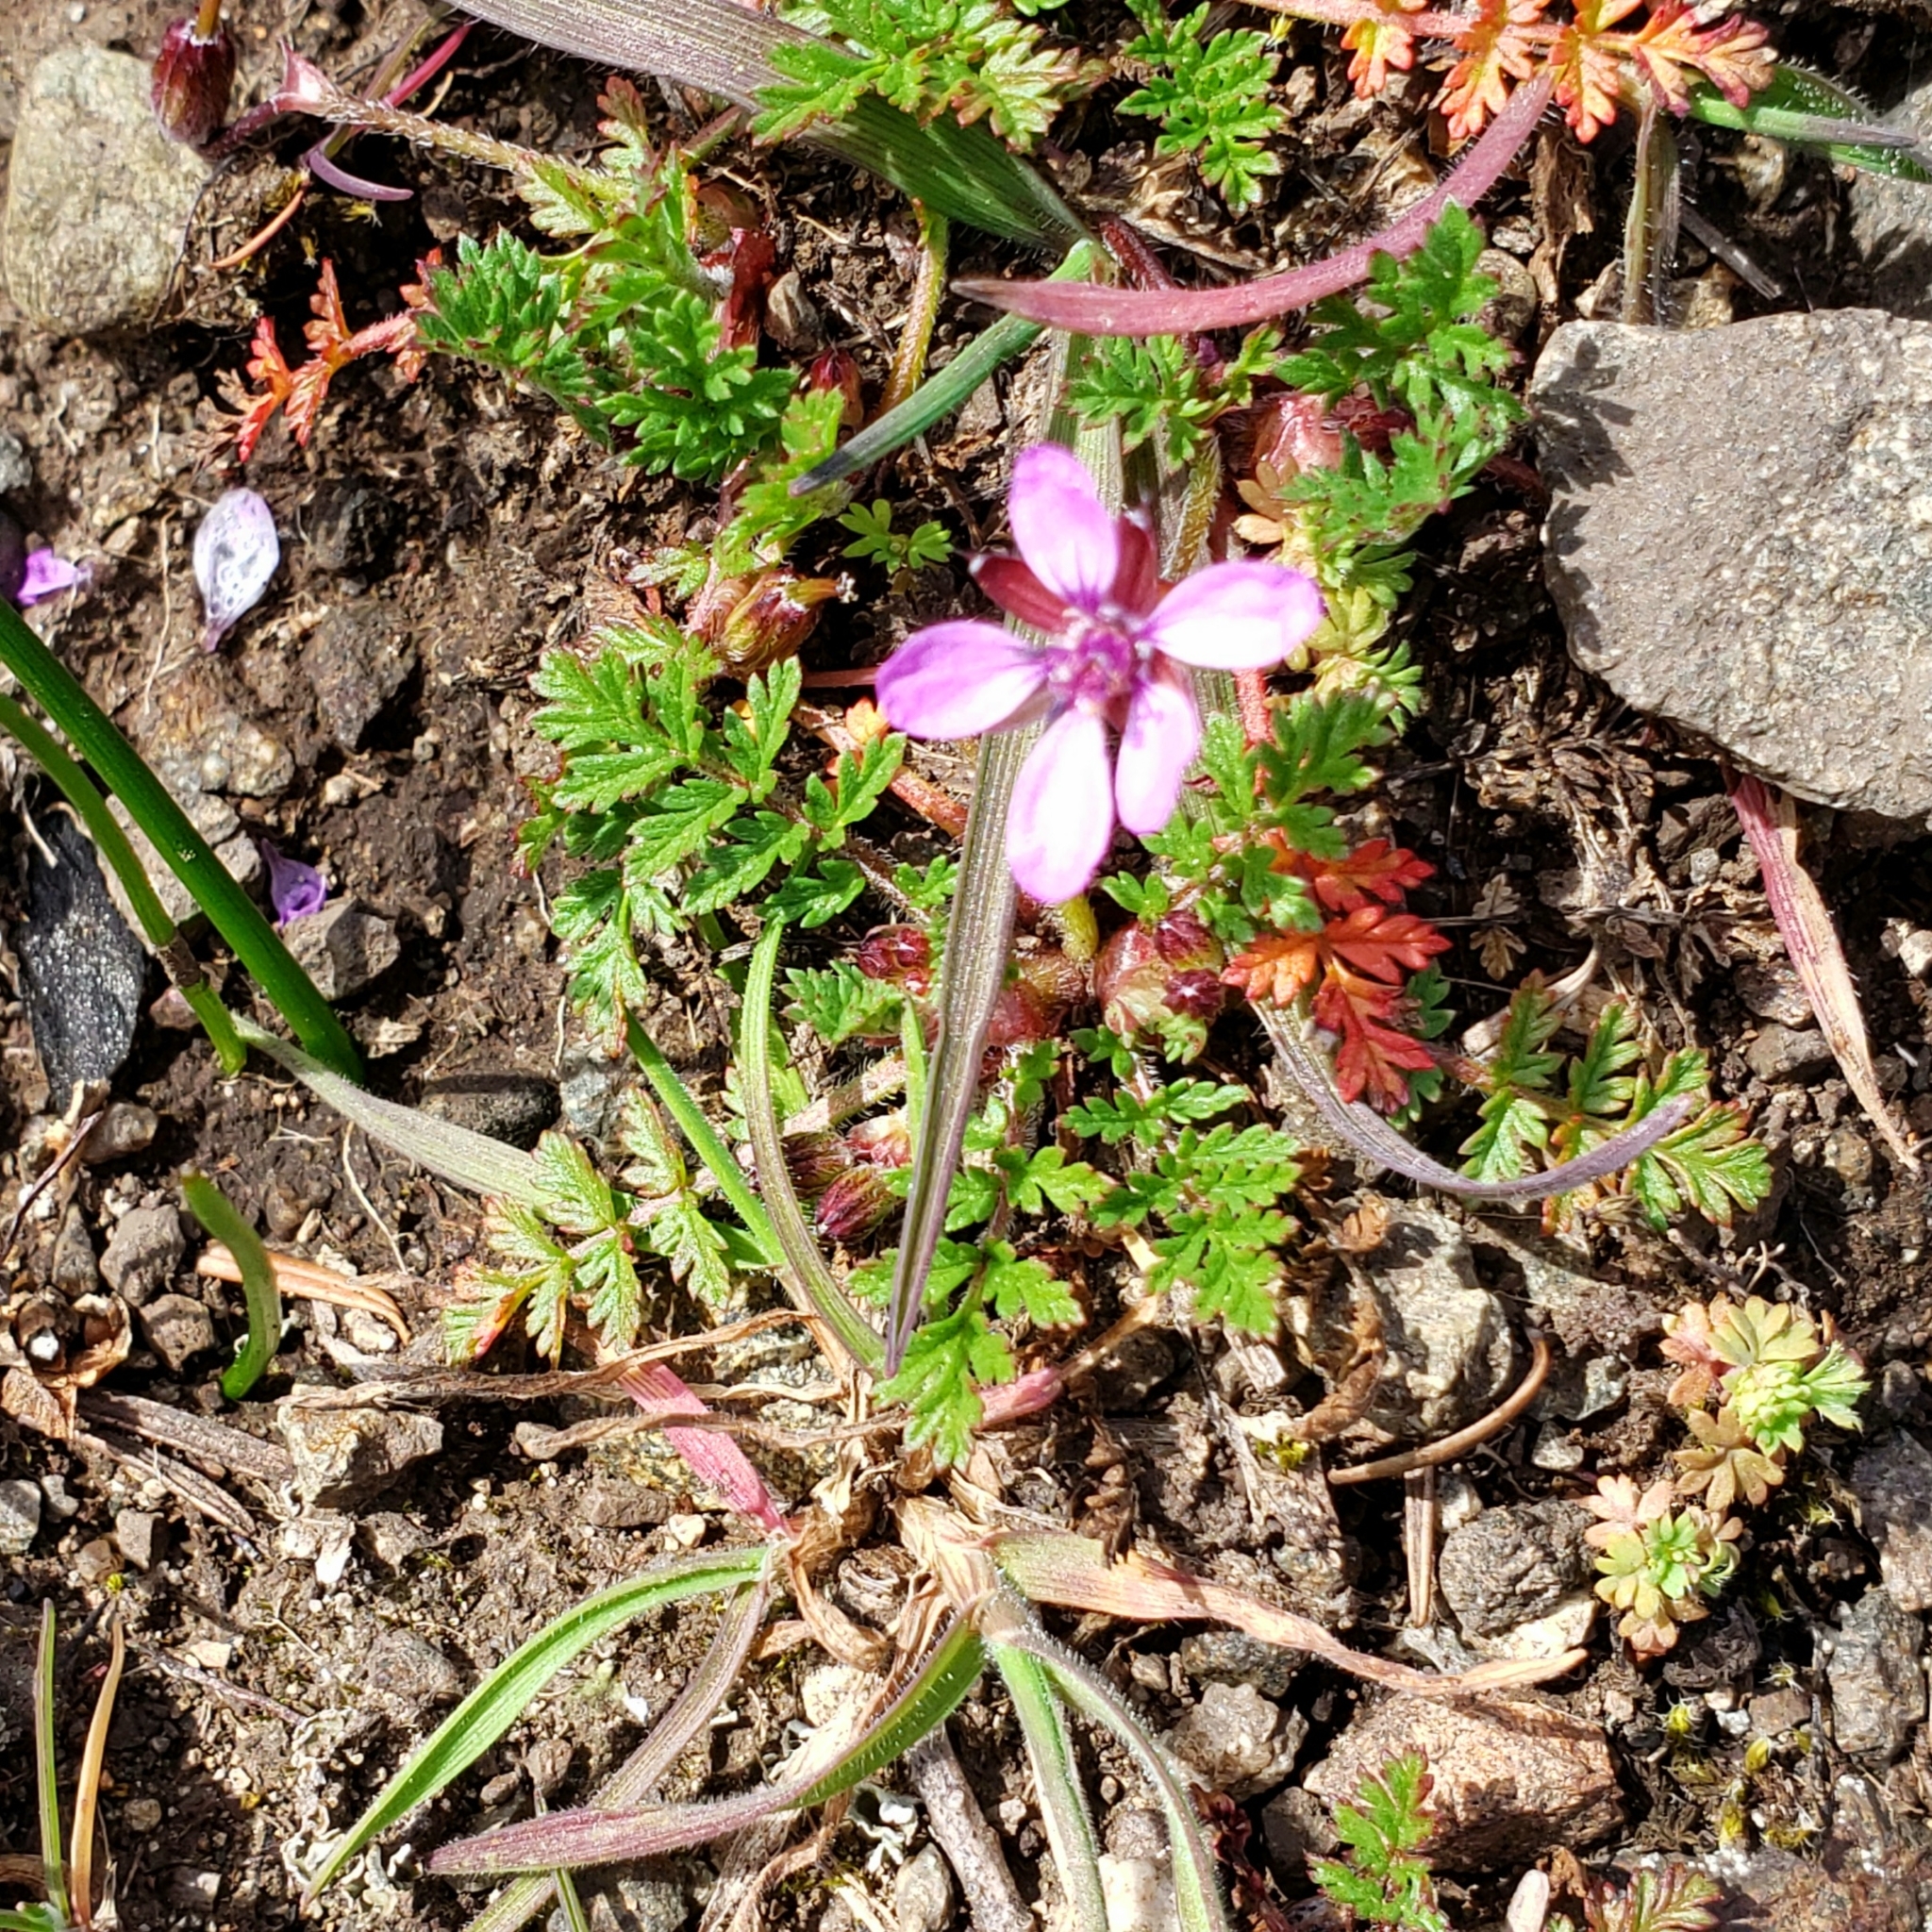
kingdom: Plantae
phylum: Tracheophyta
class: Magnoliopsida
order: Geraniales
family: Geraniaceae
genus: Erodium
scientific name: Erodium cicutarium
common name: Common stork's-bill
